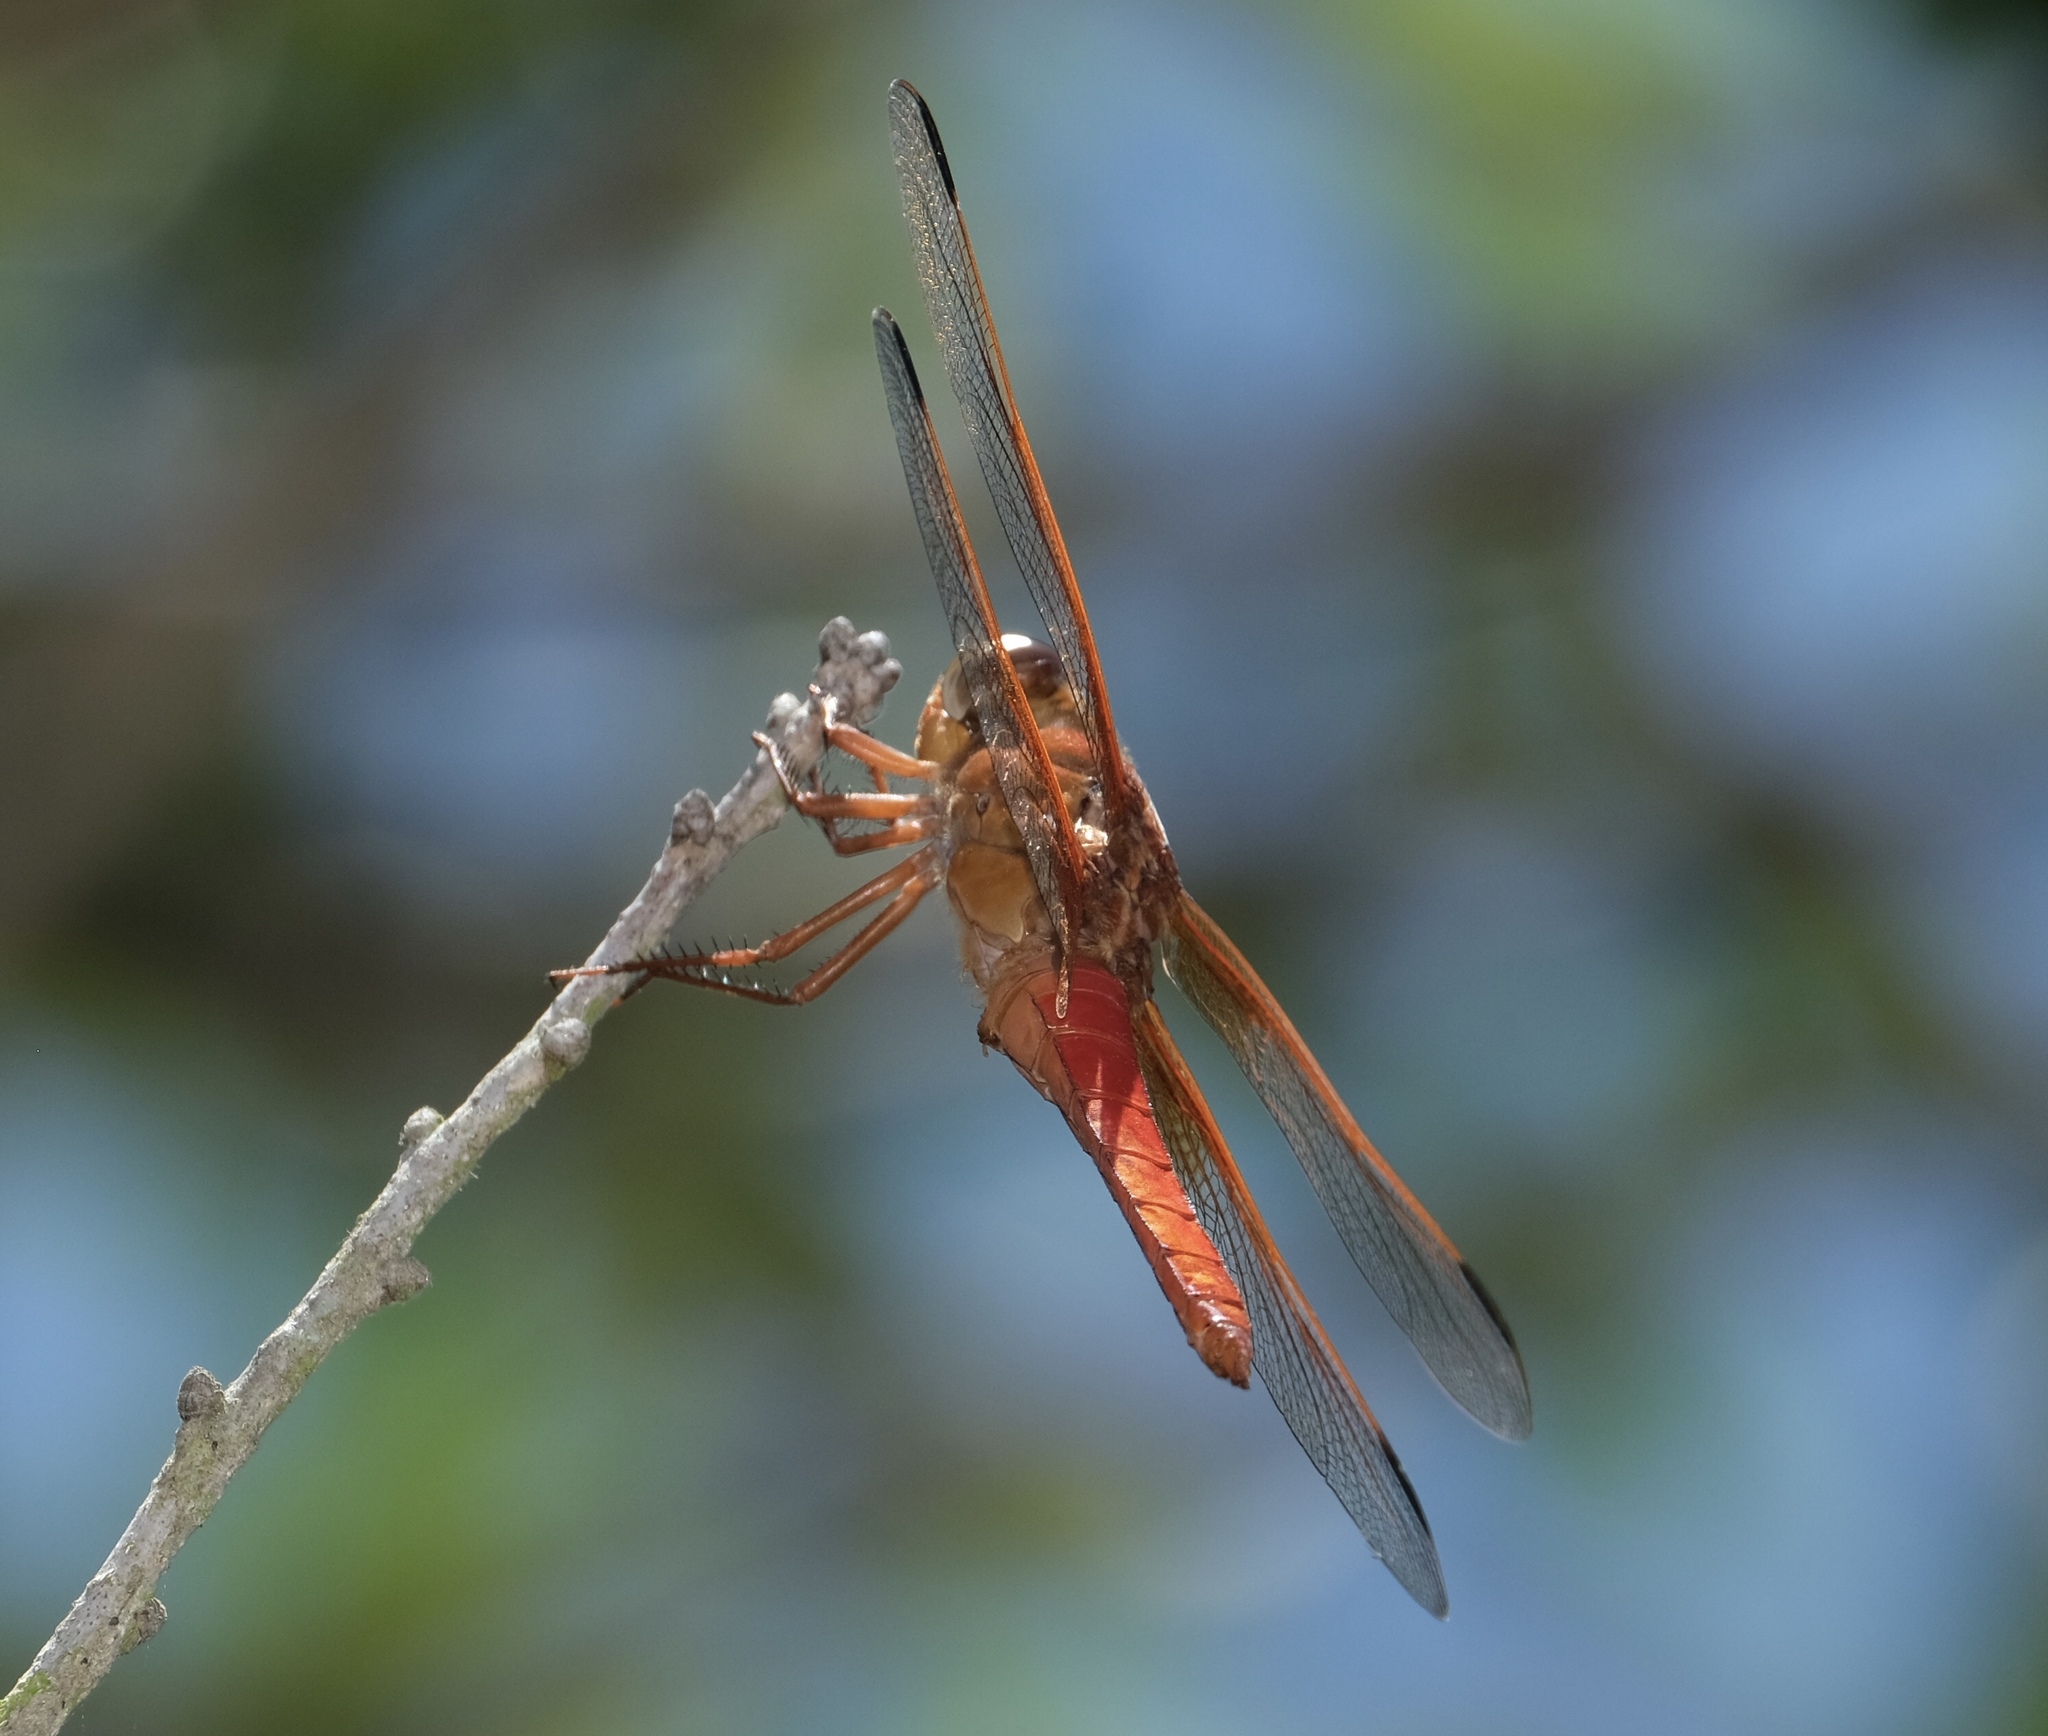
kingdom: Animalia
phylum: Arthropoda
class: Insecta
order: Odonata
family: Libellulidae
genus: Libellula
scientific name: Libellula croceipennis
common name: Neon skimmer
